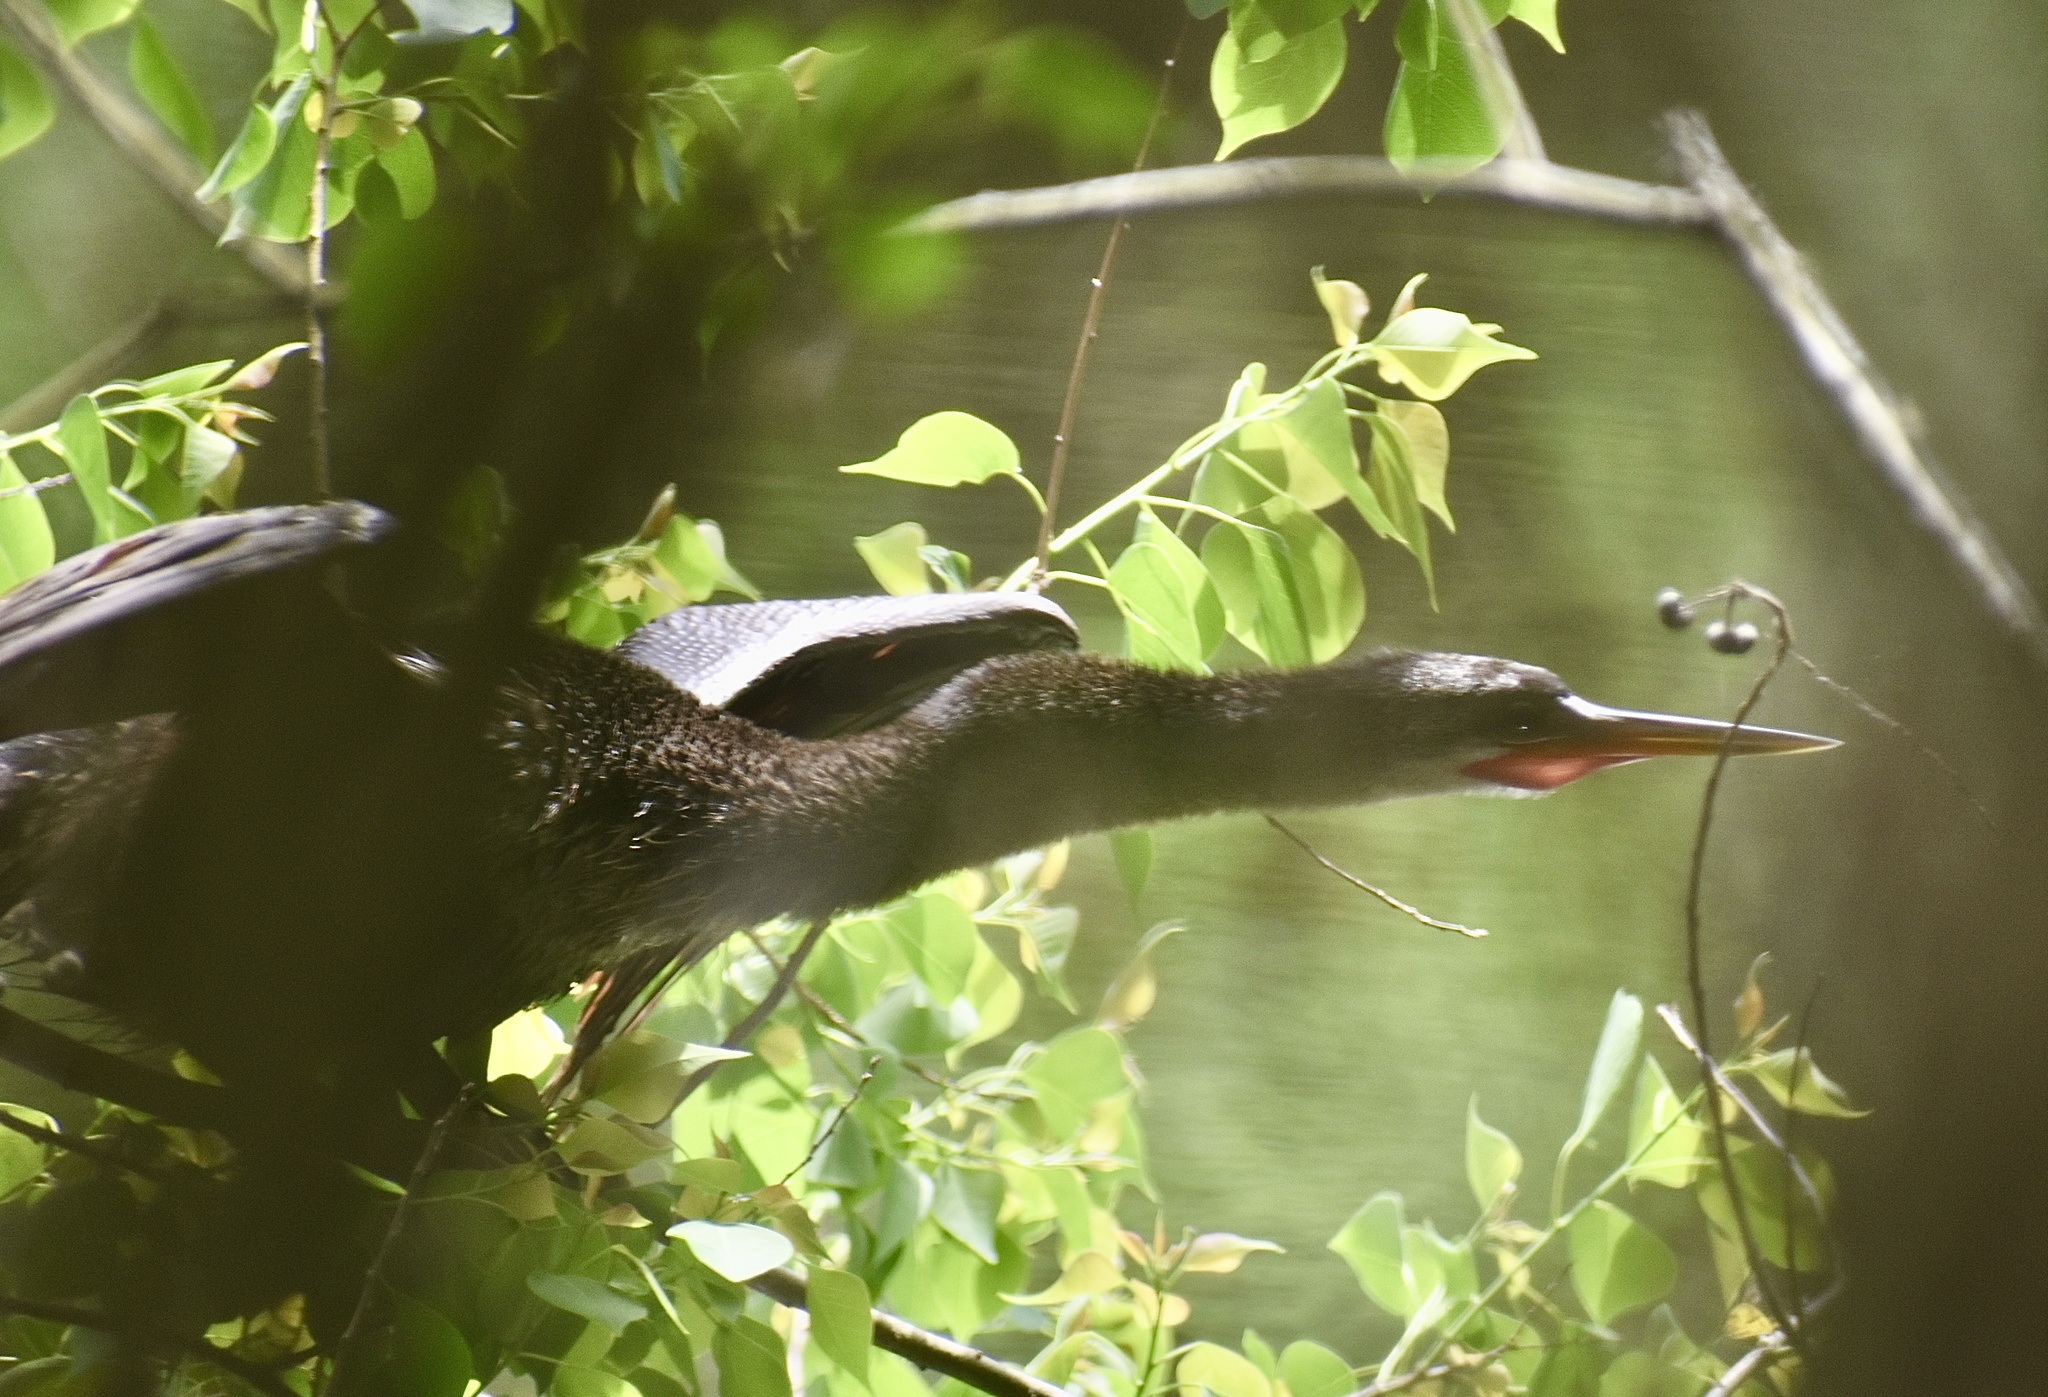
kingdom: Animalia
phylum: Chordata
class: Aves
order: Suliformes
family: Anhingidae
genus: Anhinga
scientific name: Anhinga anhinga
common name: Anhinga
